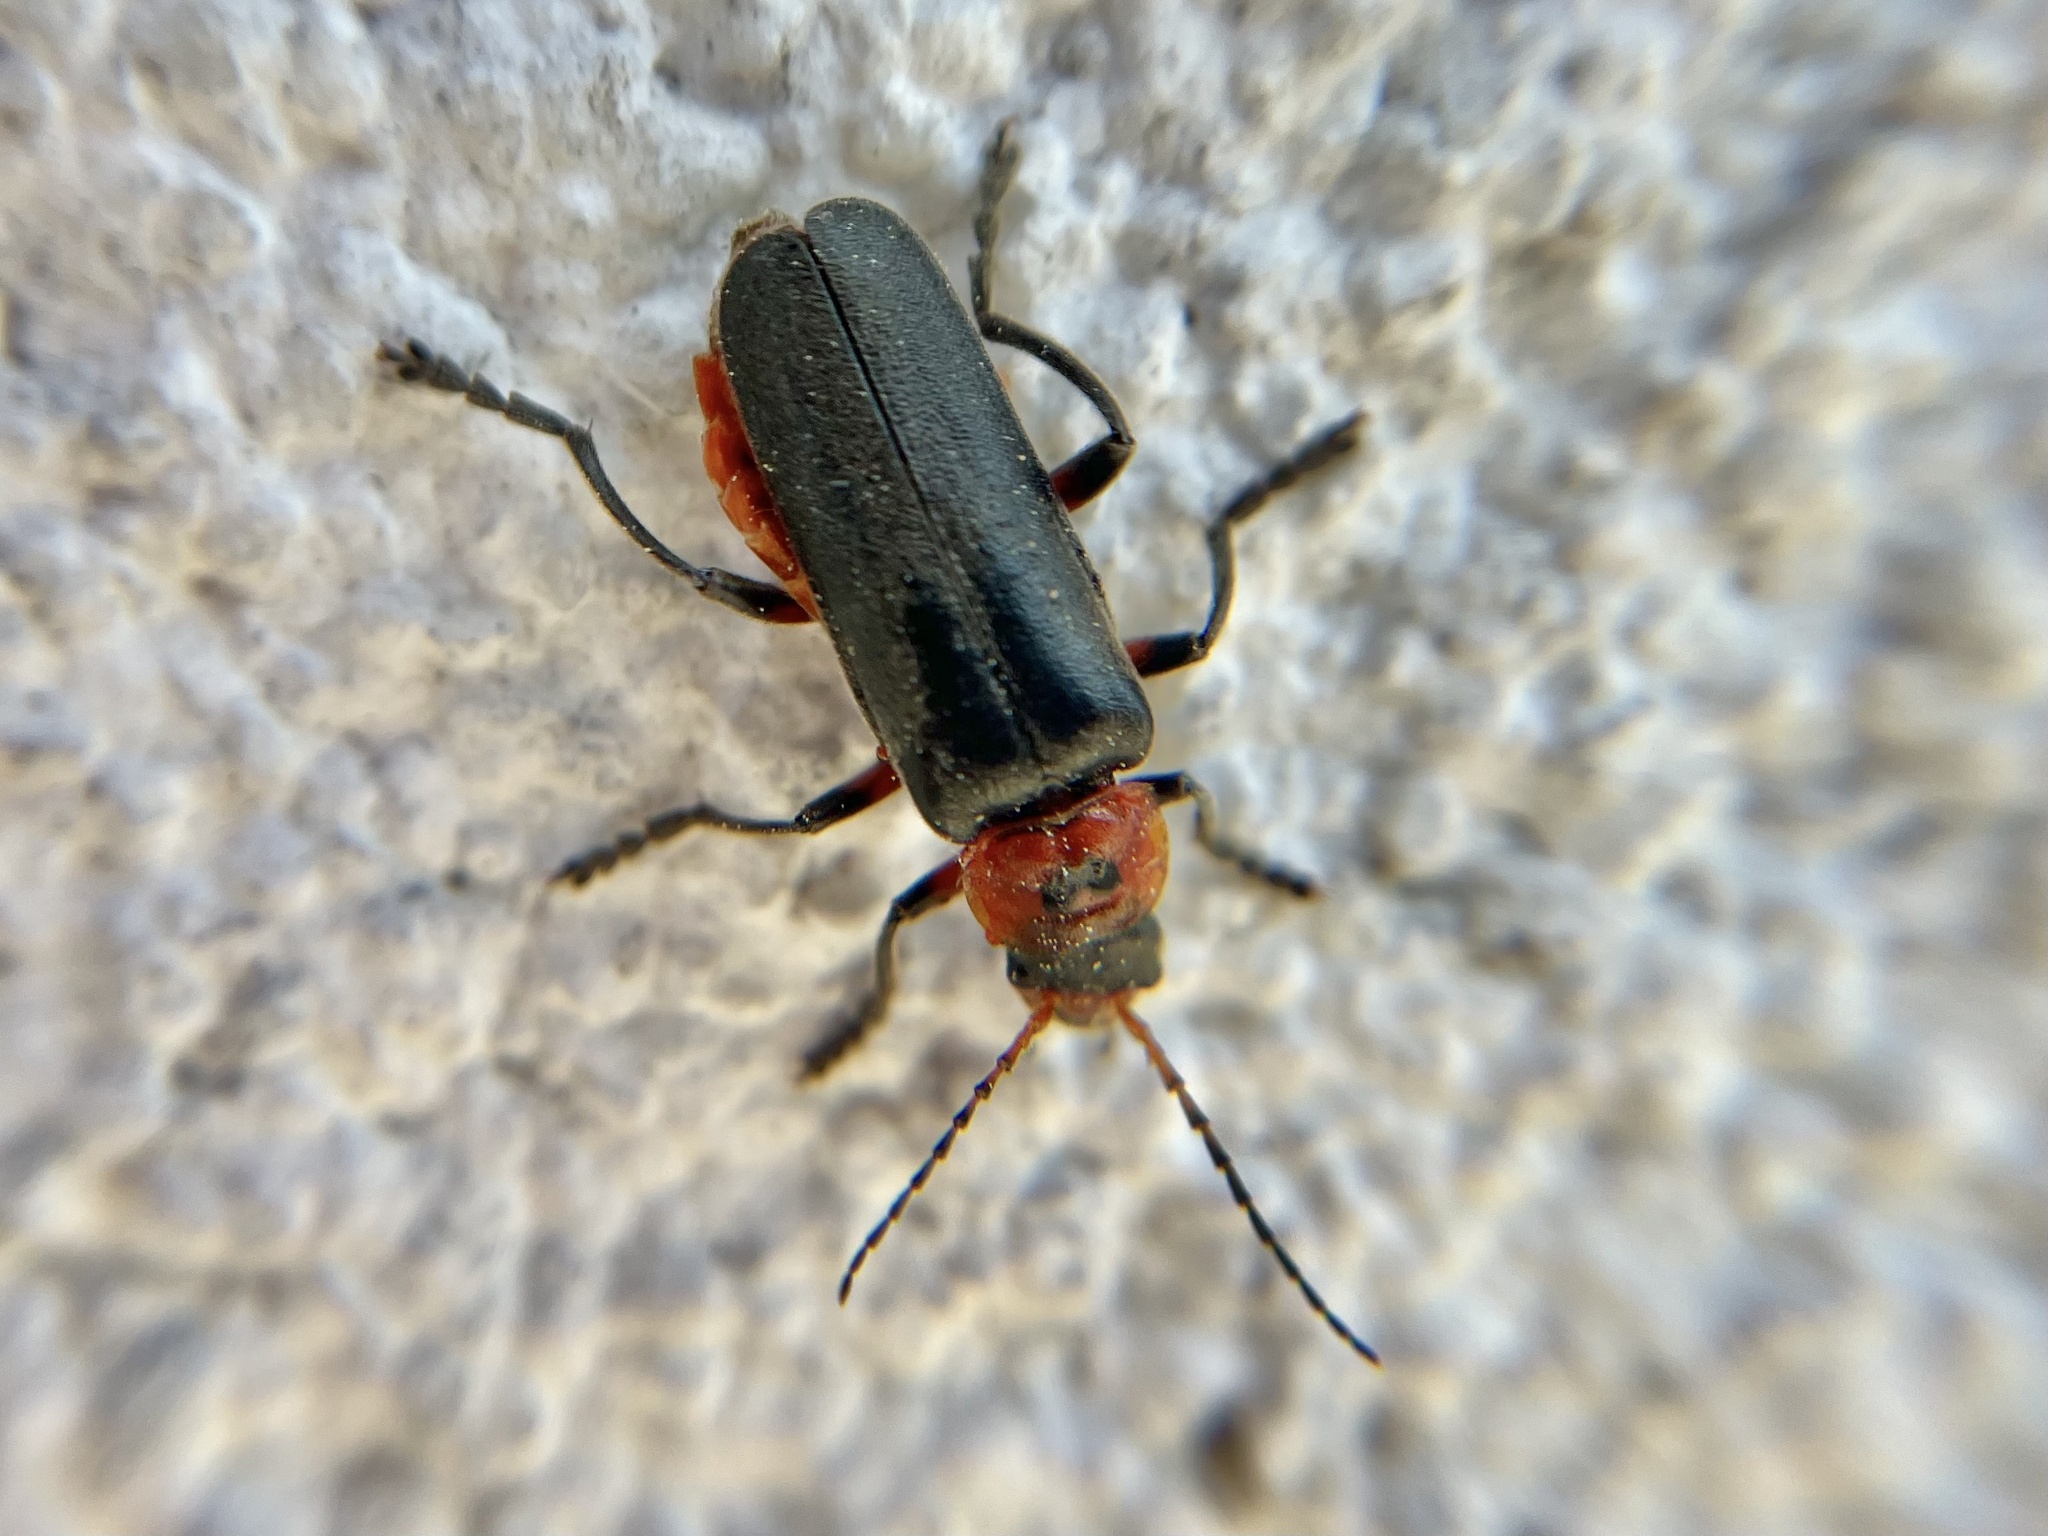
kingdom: Animalia
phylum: Arthropoda
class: Insecta
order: Coleoptera
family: Cantharidae
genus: Cantharis
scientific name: Cantharis rustica
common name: Soldier beetle
